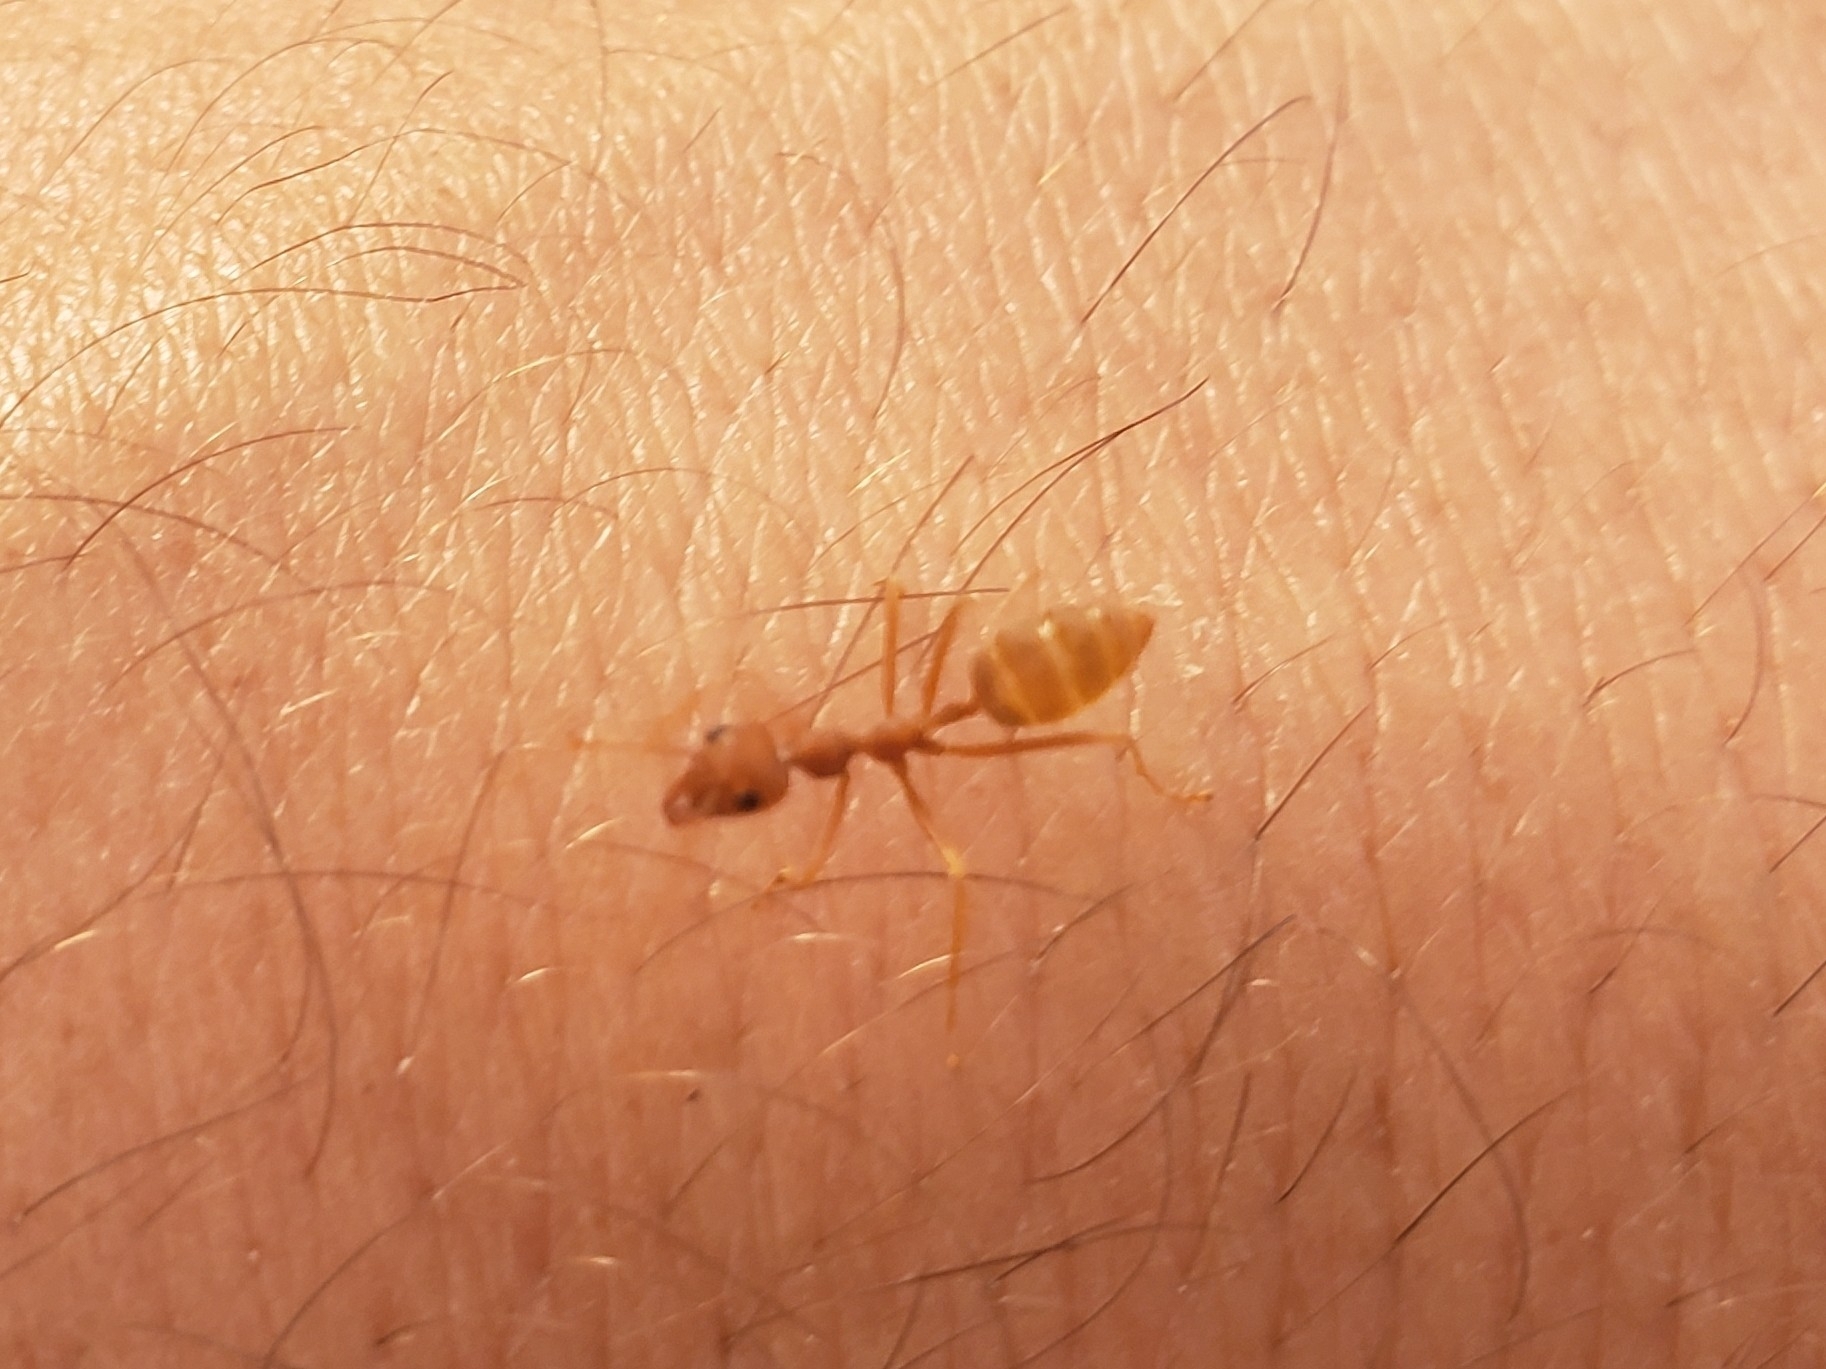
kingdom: Animalia
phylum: Arthropoda
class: Insecta
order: Hymenoptera
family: Formicidae
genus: Oecophylla
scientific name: Oecophylla longinoda
